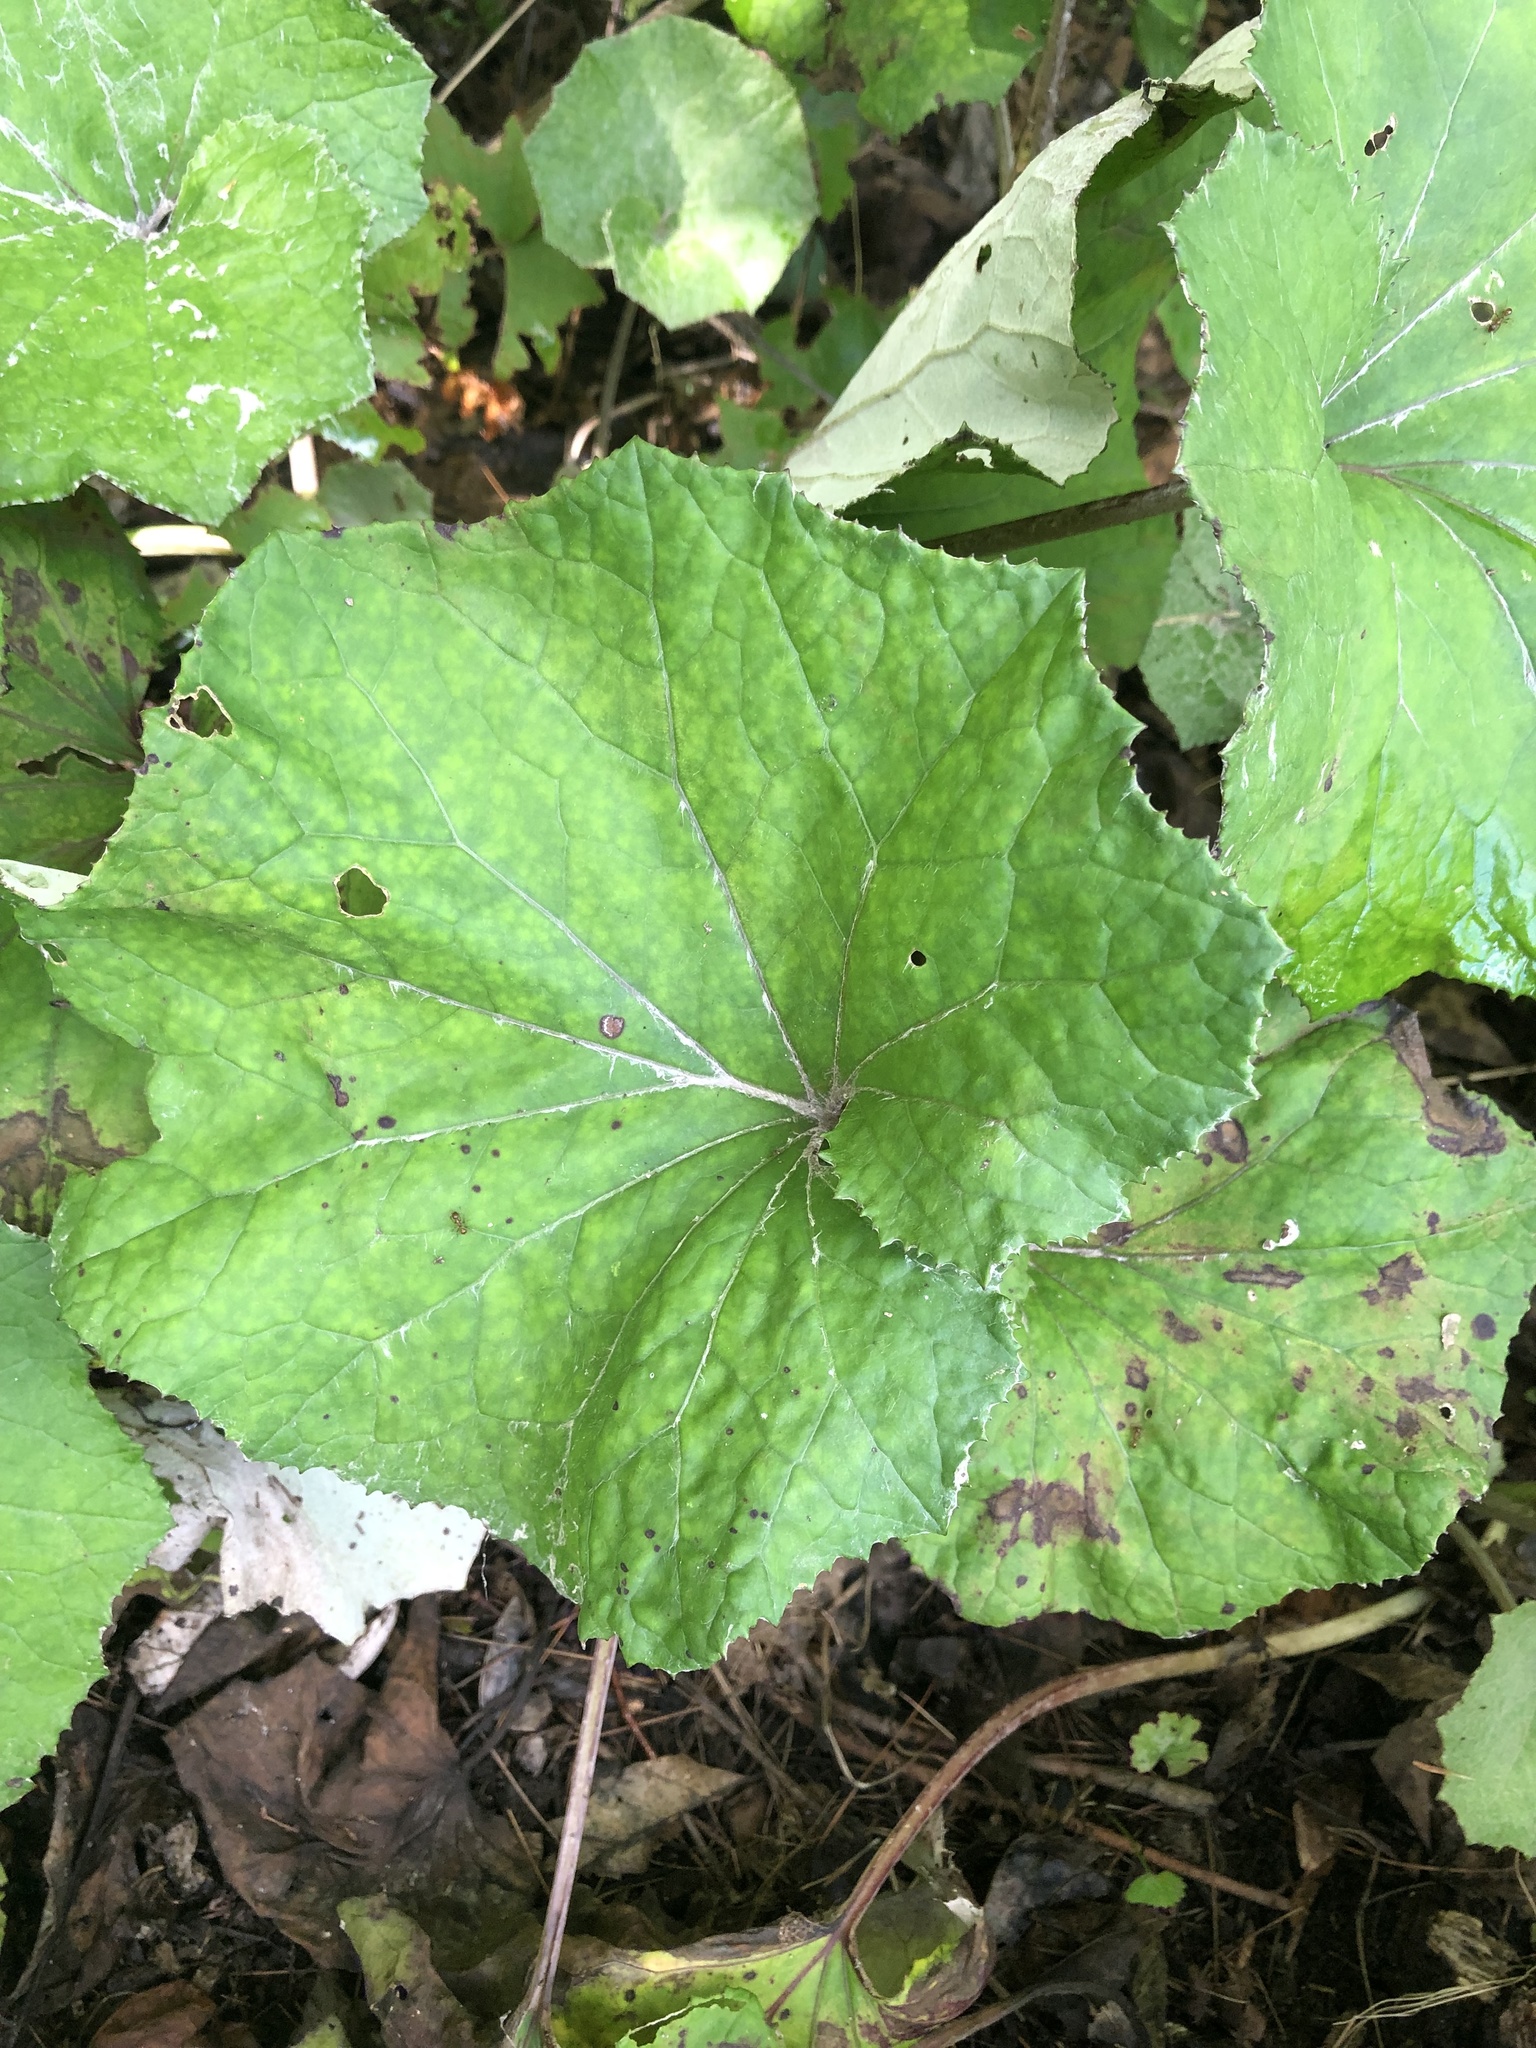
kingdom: Plantae
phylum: Tracheophyta
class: Magnoliopsida
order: Asterales
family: Asteraceae
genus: Tussilago
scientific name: Tussilago farfara
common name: Coltsfoot
